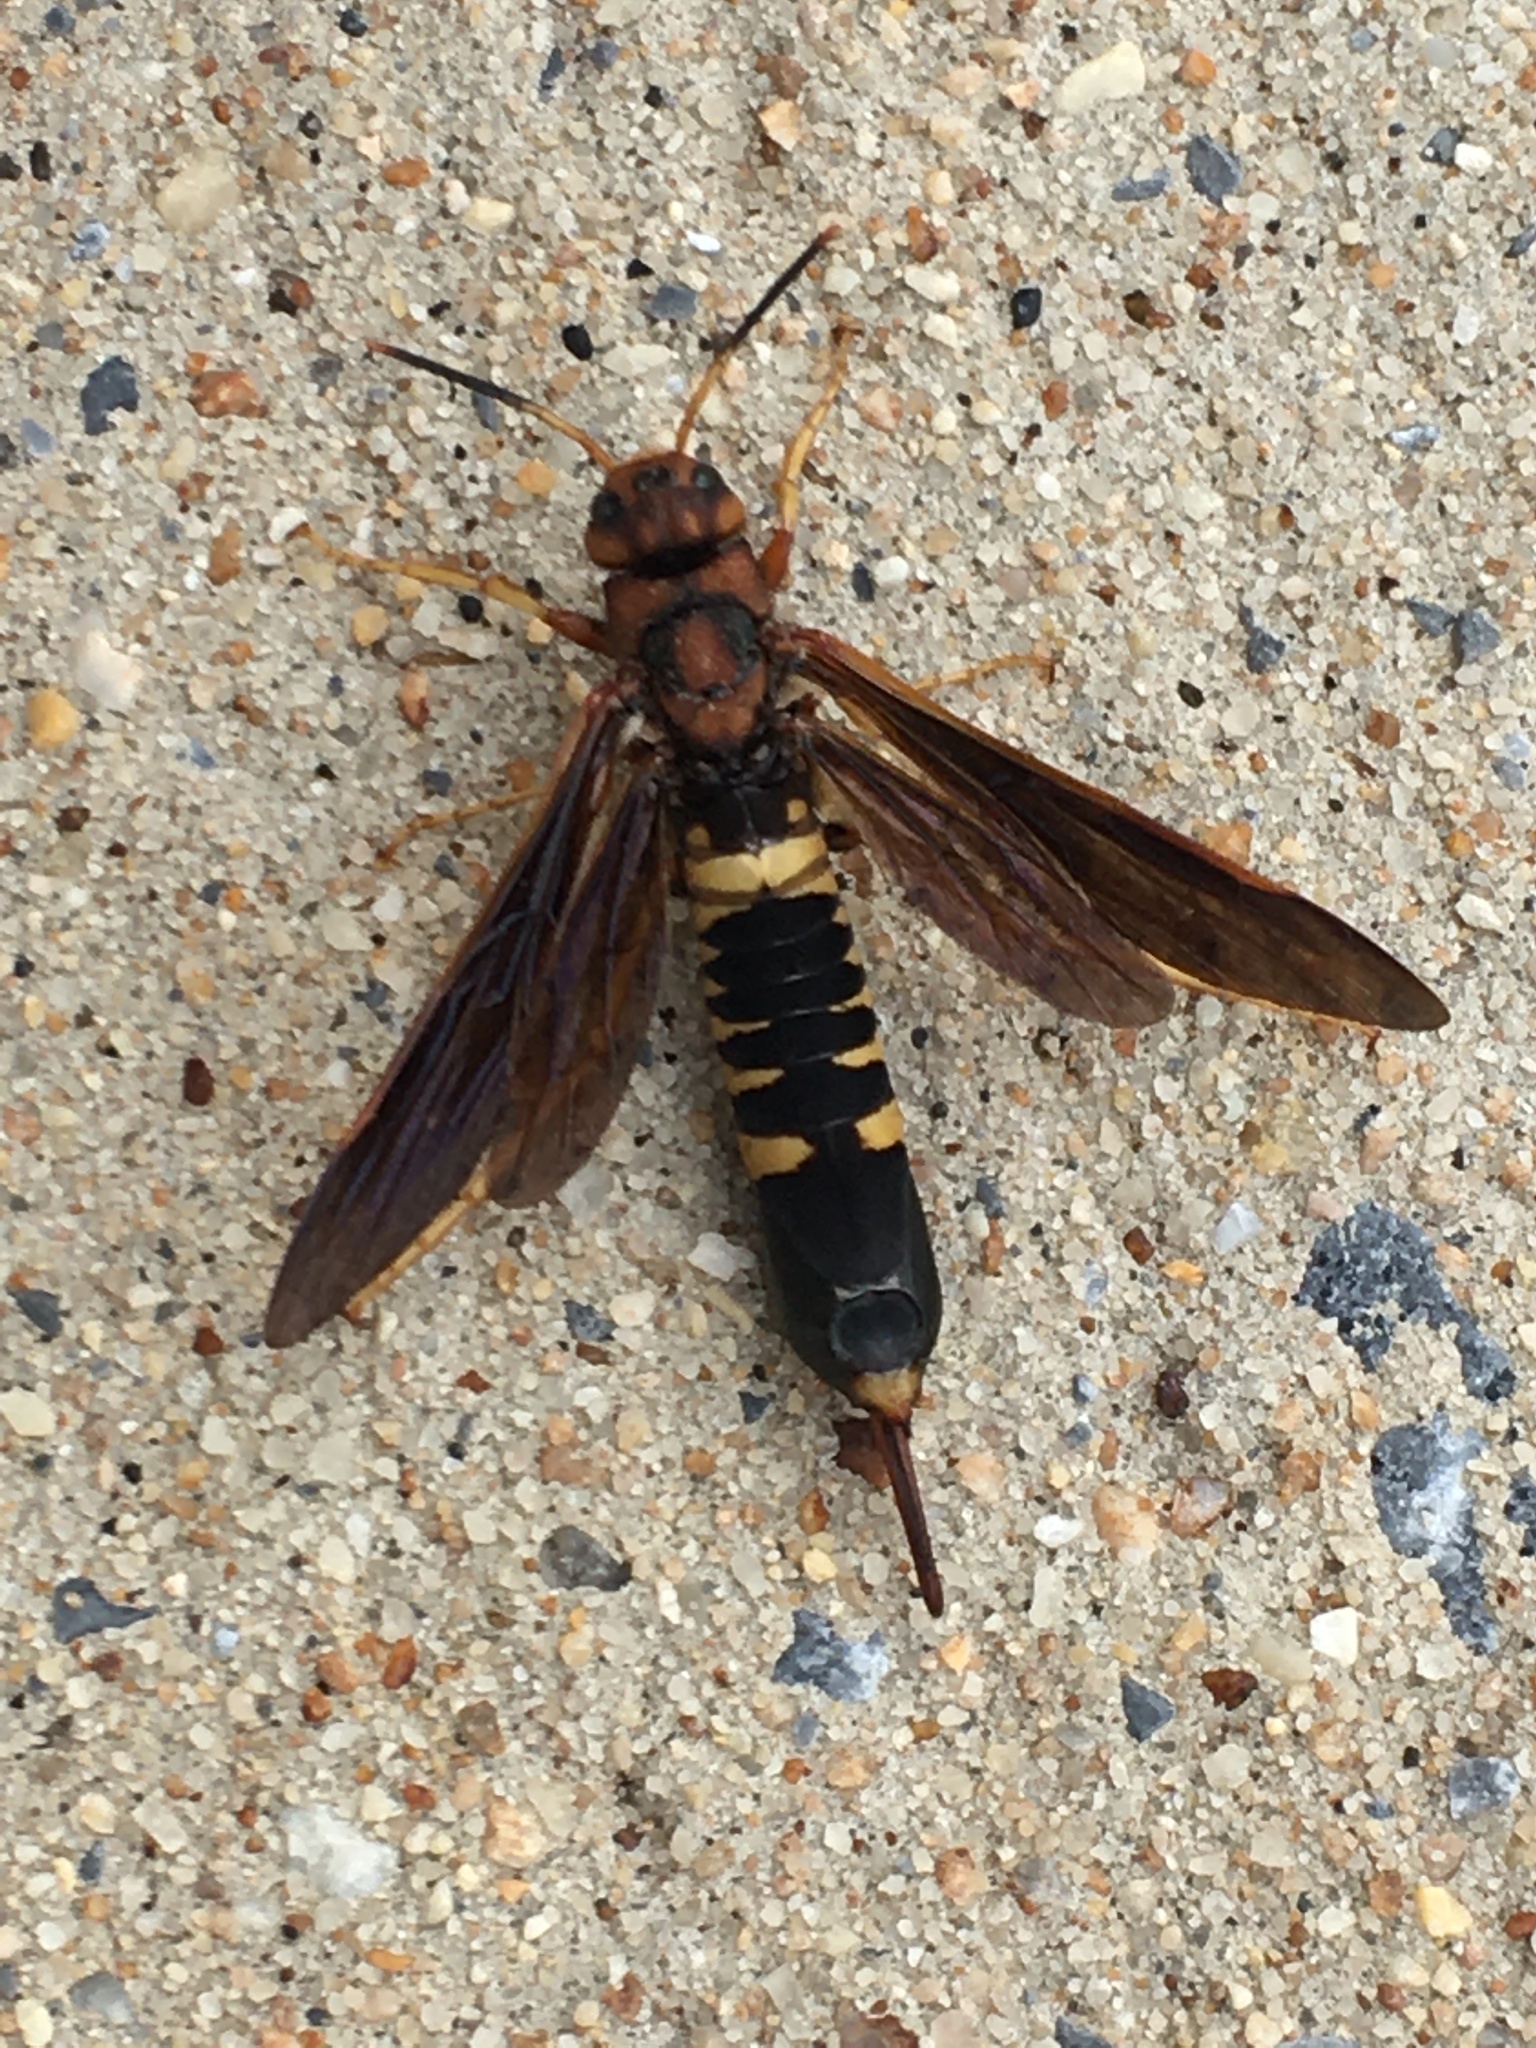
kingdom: Animalia
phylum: Arthropoda
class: Insecta
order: Hymenoptera
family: Siricidae
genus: Tremex
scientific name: Tremex columba
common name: Wasp
